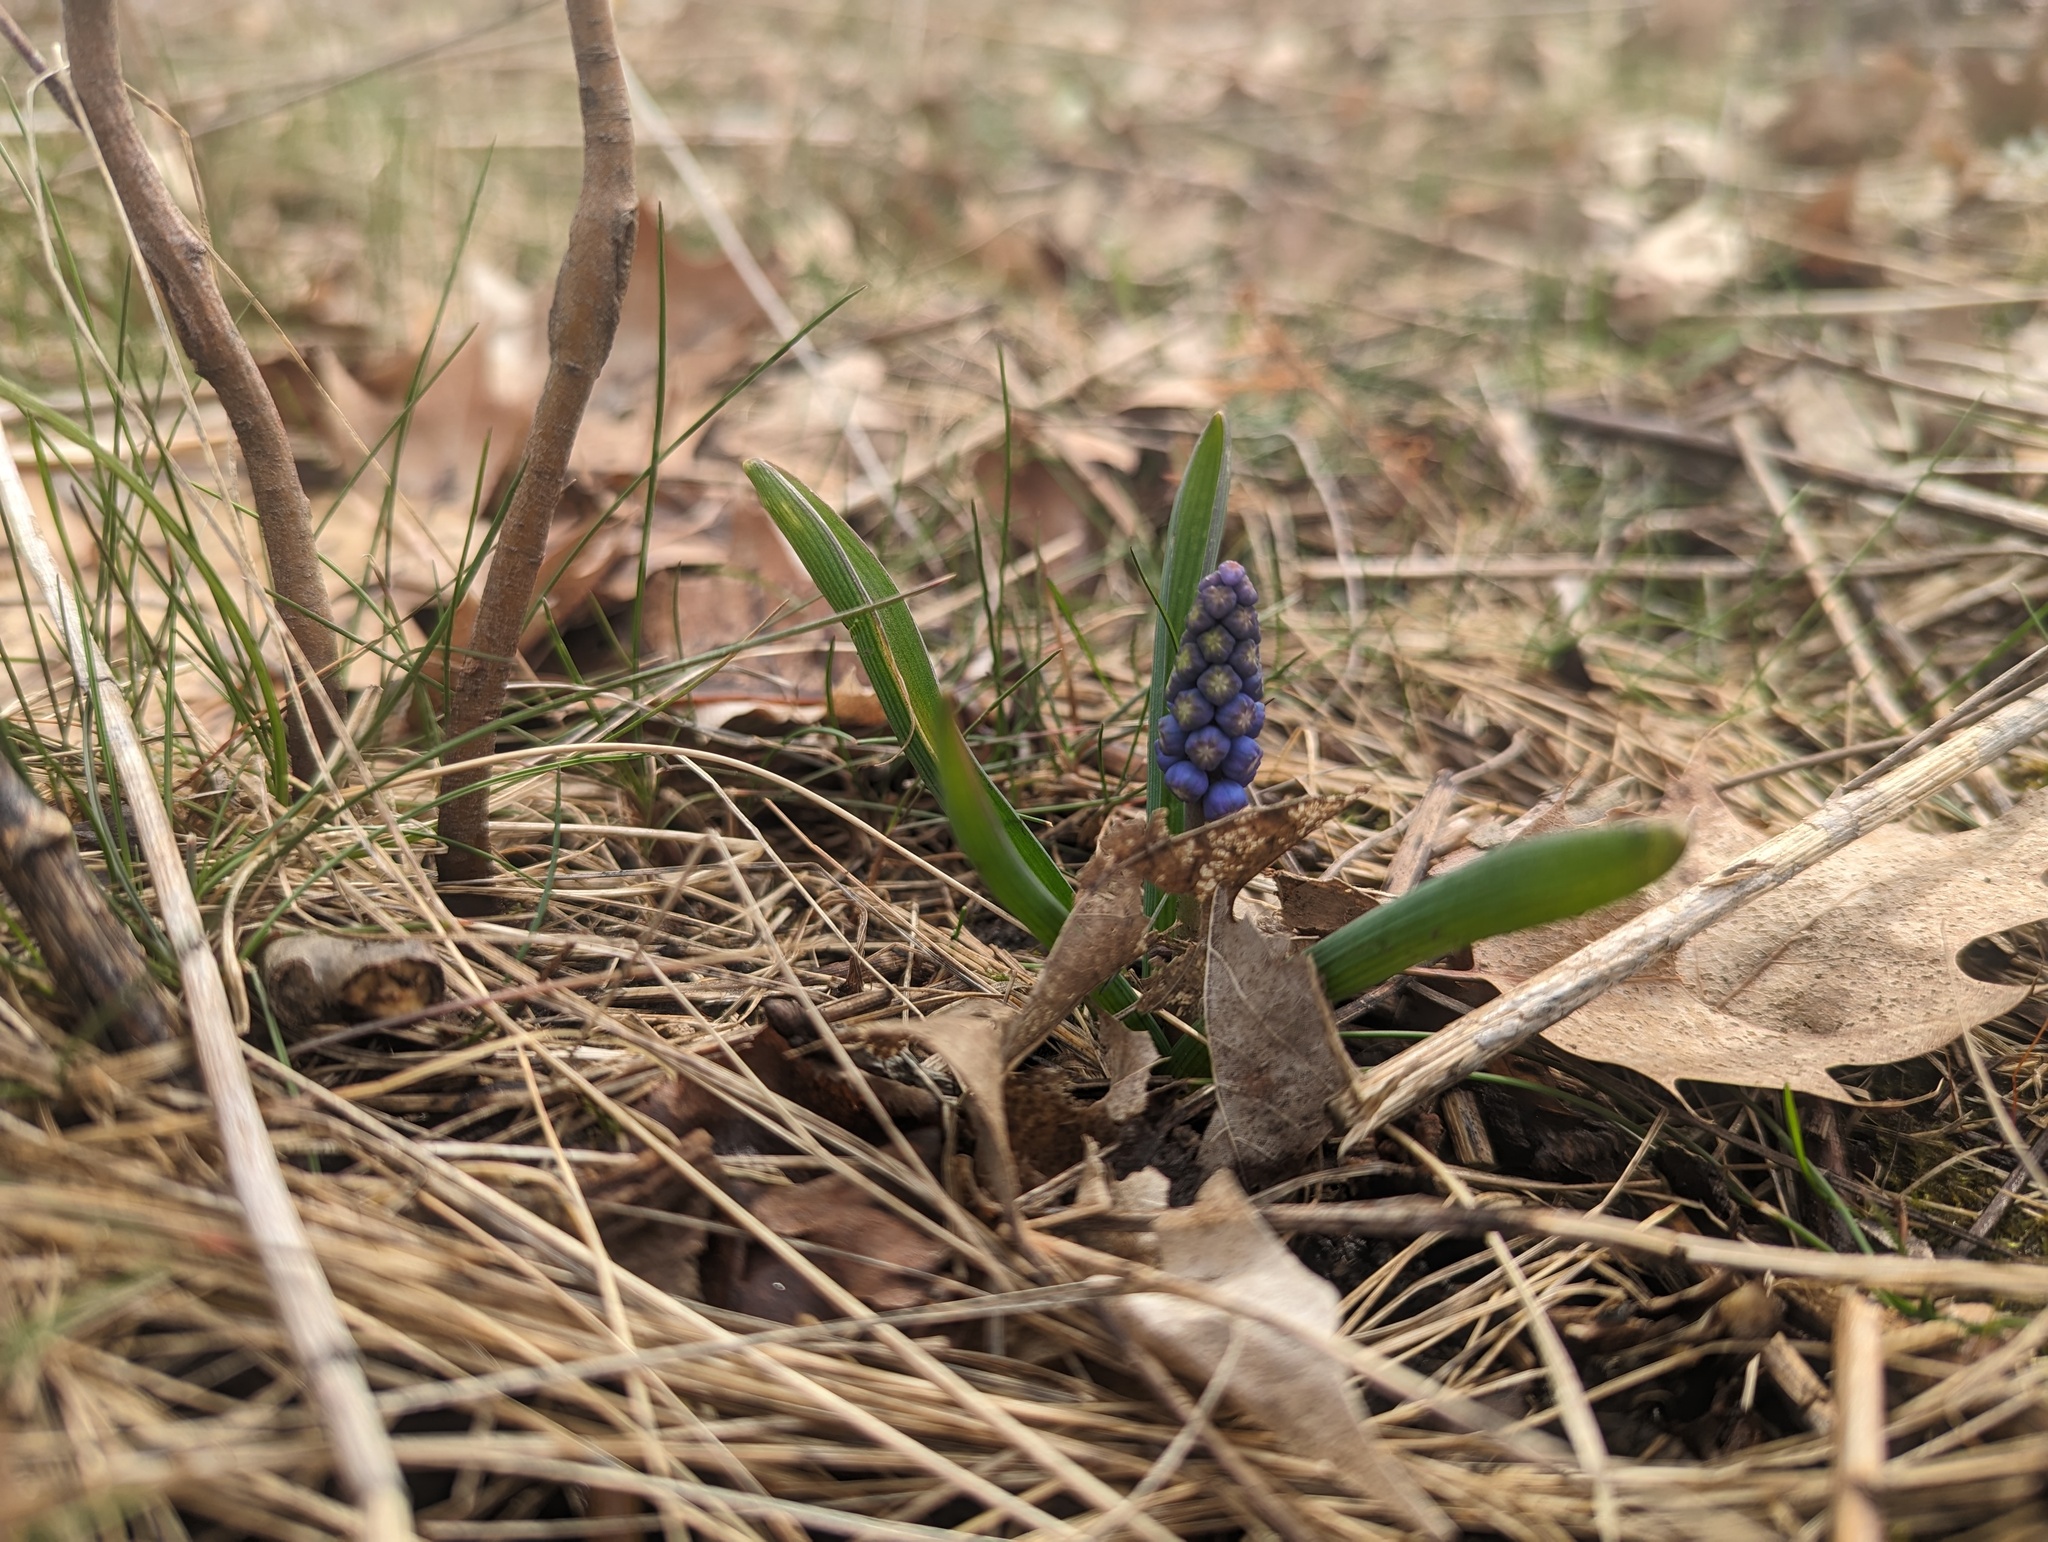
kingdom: Plantae
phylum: Tracheophyta
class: Liliopsida
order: Asparagales
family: Asparagaceae
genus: Muscari
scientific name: Muscari neglectum
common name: Grape-hyacinth
